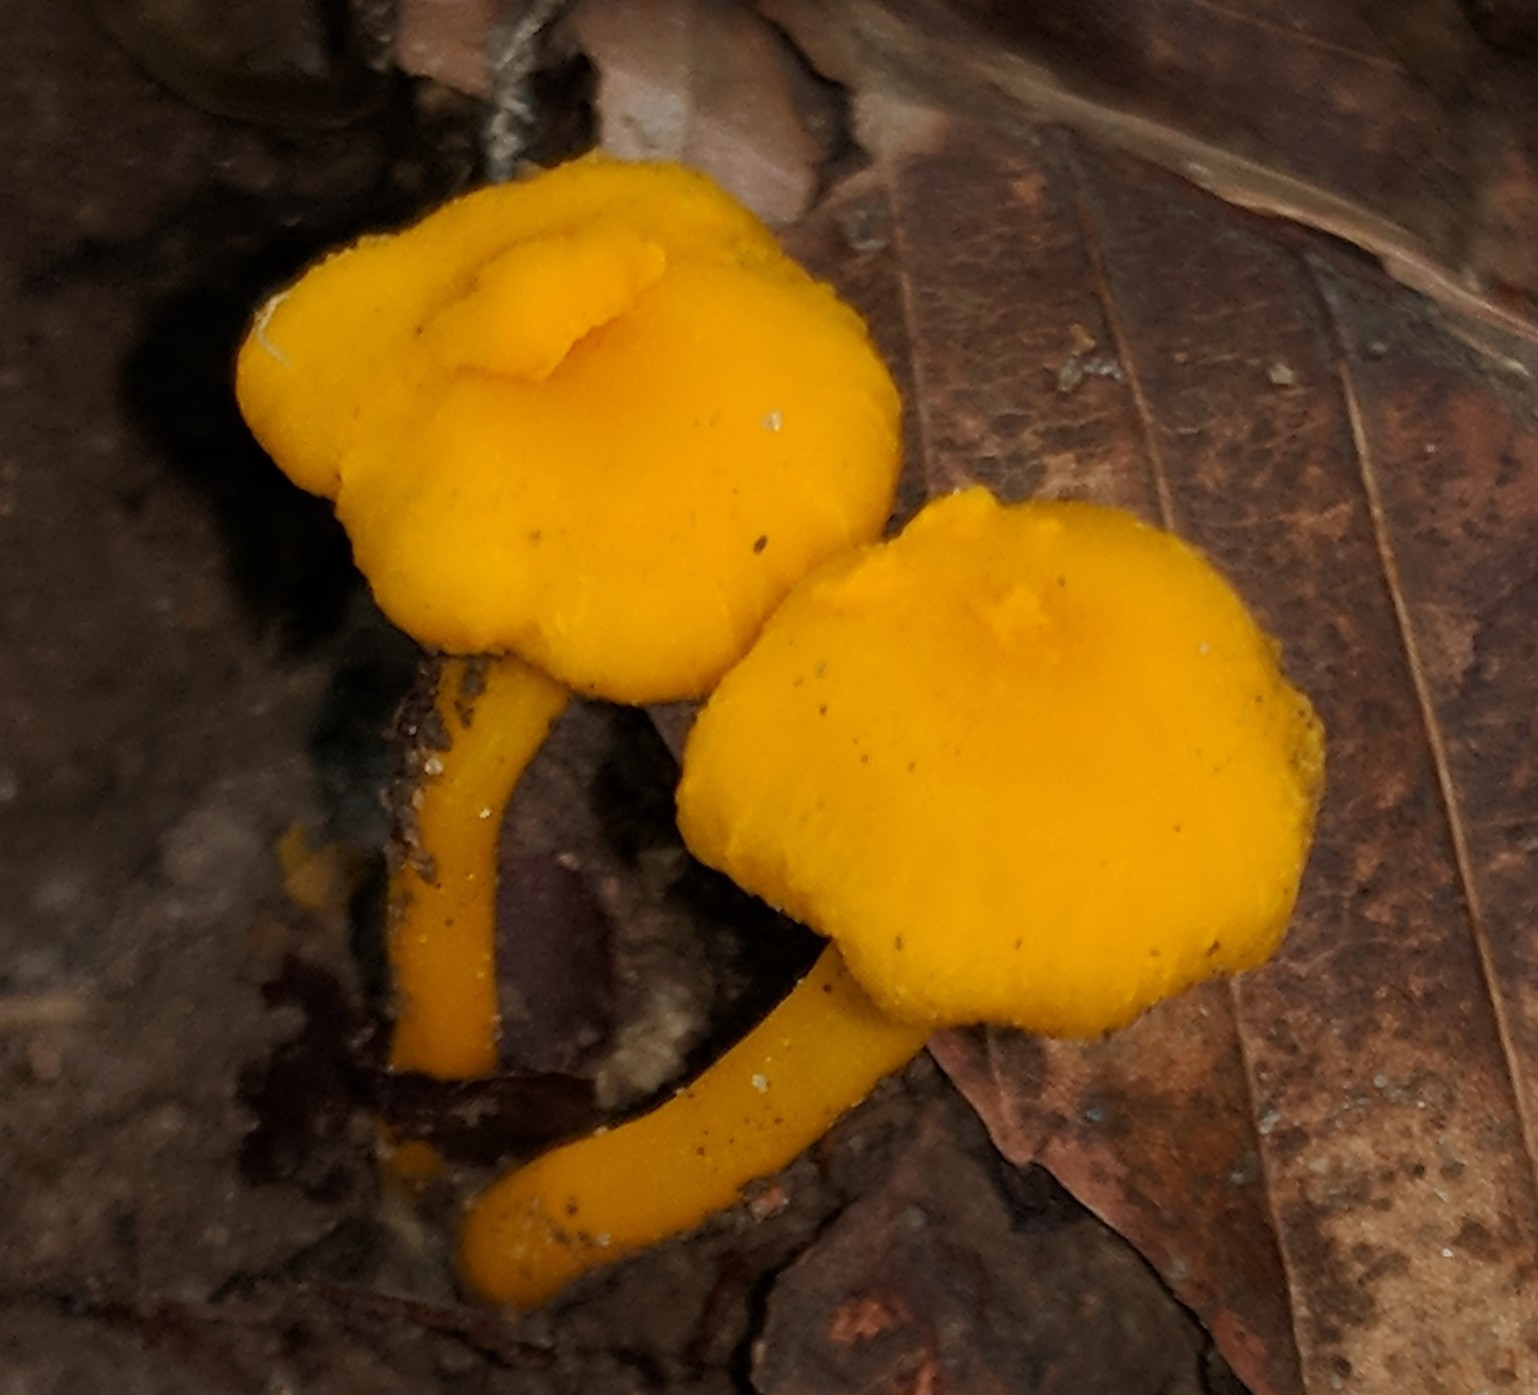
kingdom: Fungi
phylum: Basidiomycota
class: Agaricomycetes
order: Cantharellales
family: Hydnaceae
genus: Cantharellus
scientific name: Cantharellus minor
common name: Small chanterelle
